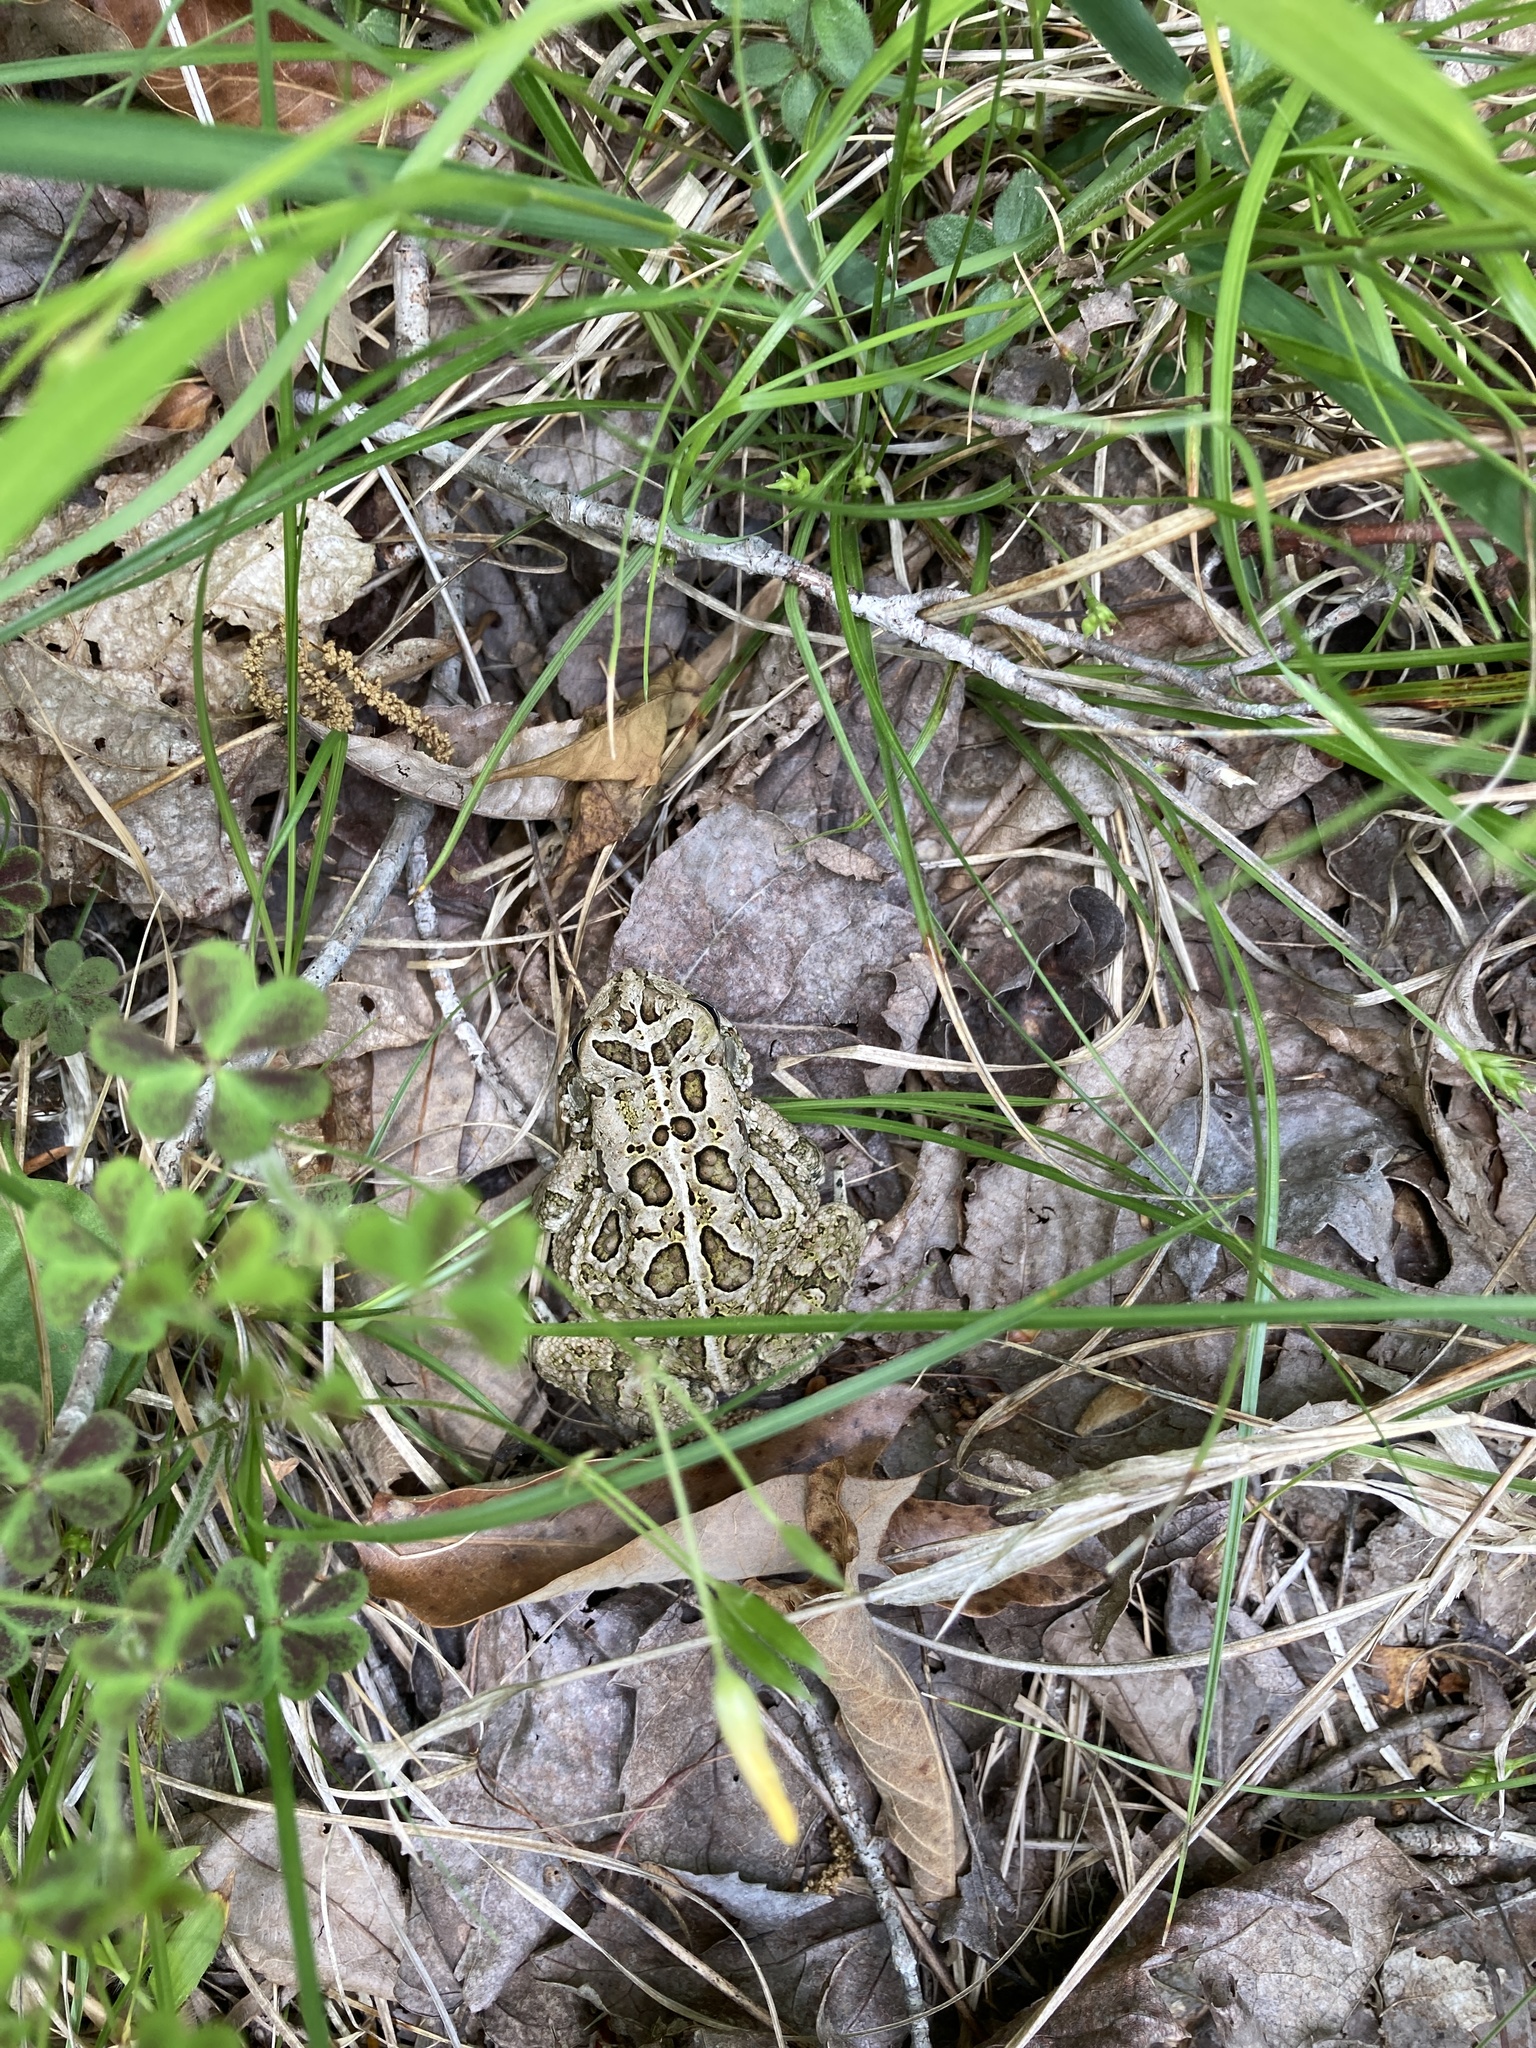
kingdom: Animalia
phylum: Chordata
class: Amphibia
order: Anura
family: Bufonidae
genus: Anaxyrus
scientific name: Anaxyrus fowleri
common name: Fowler's toad
